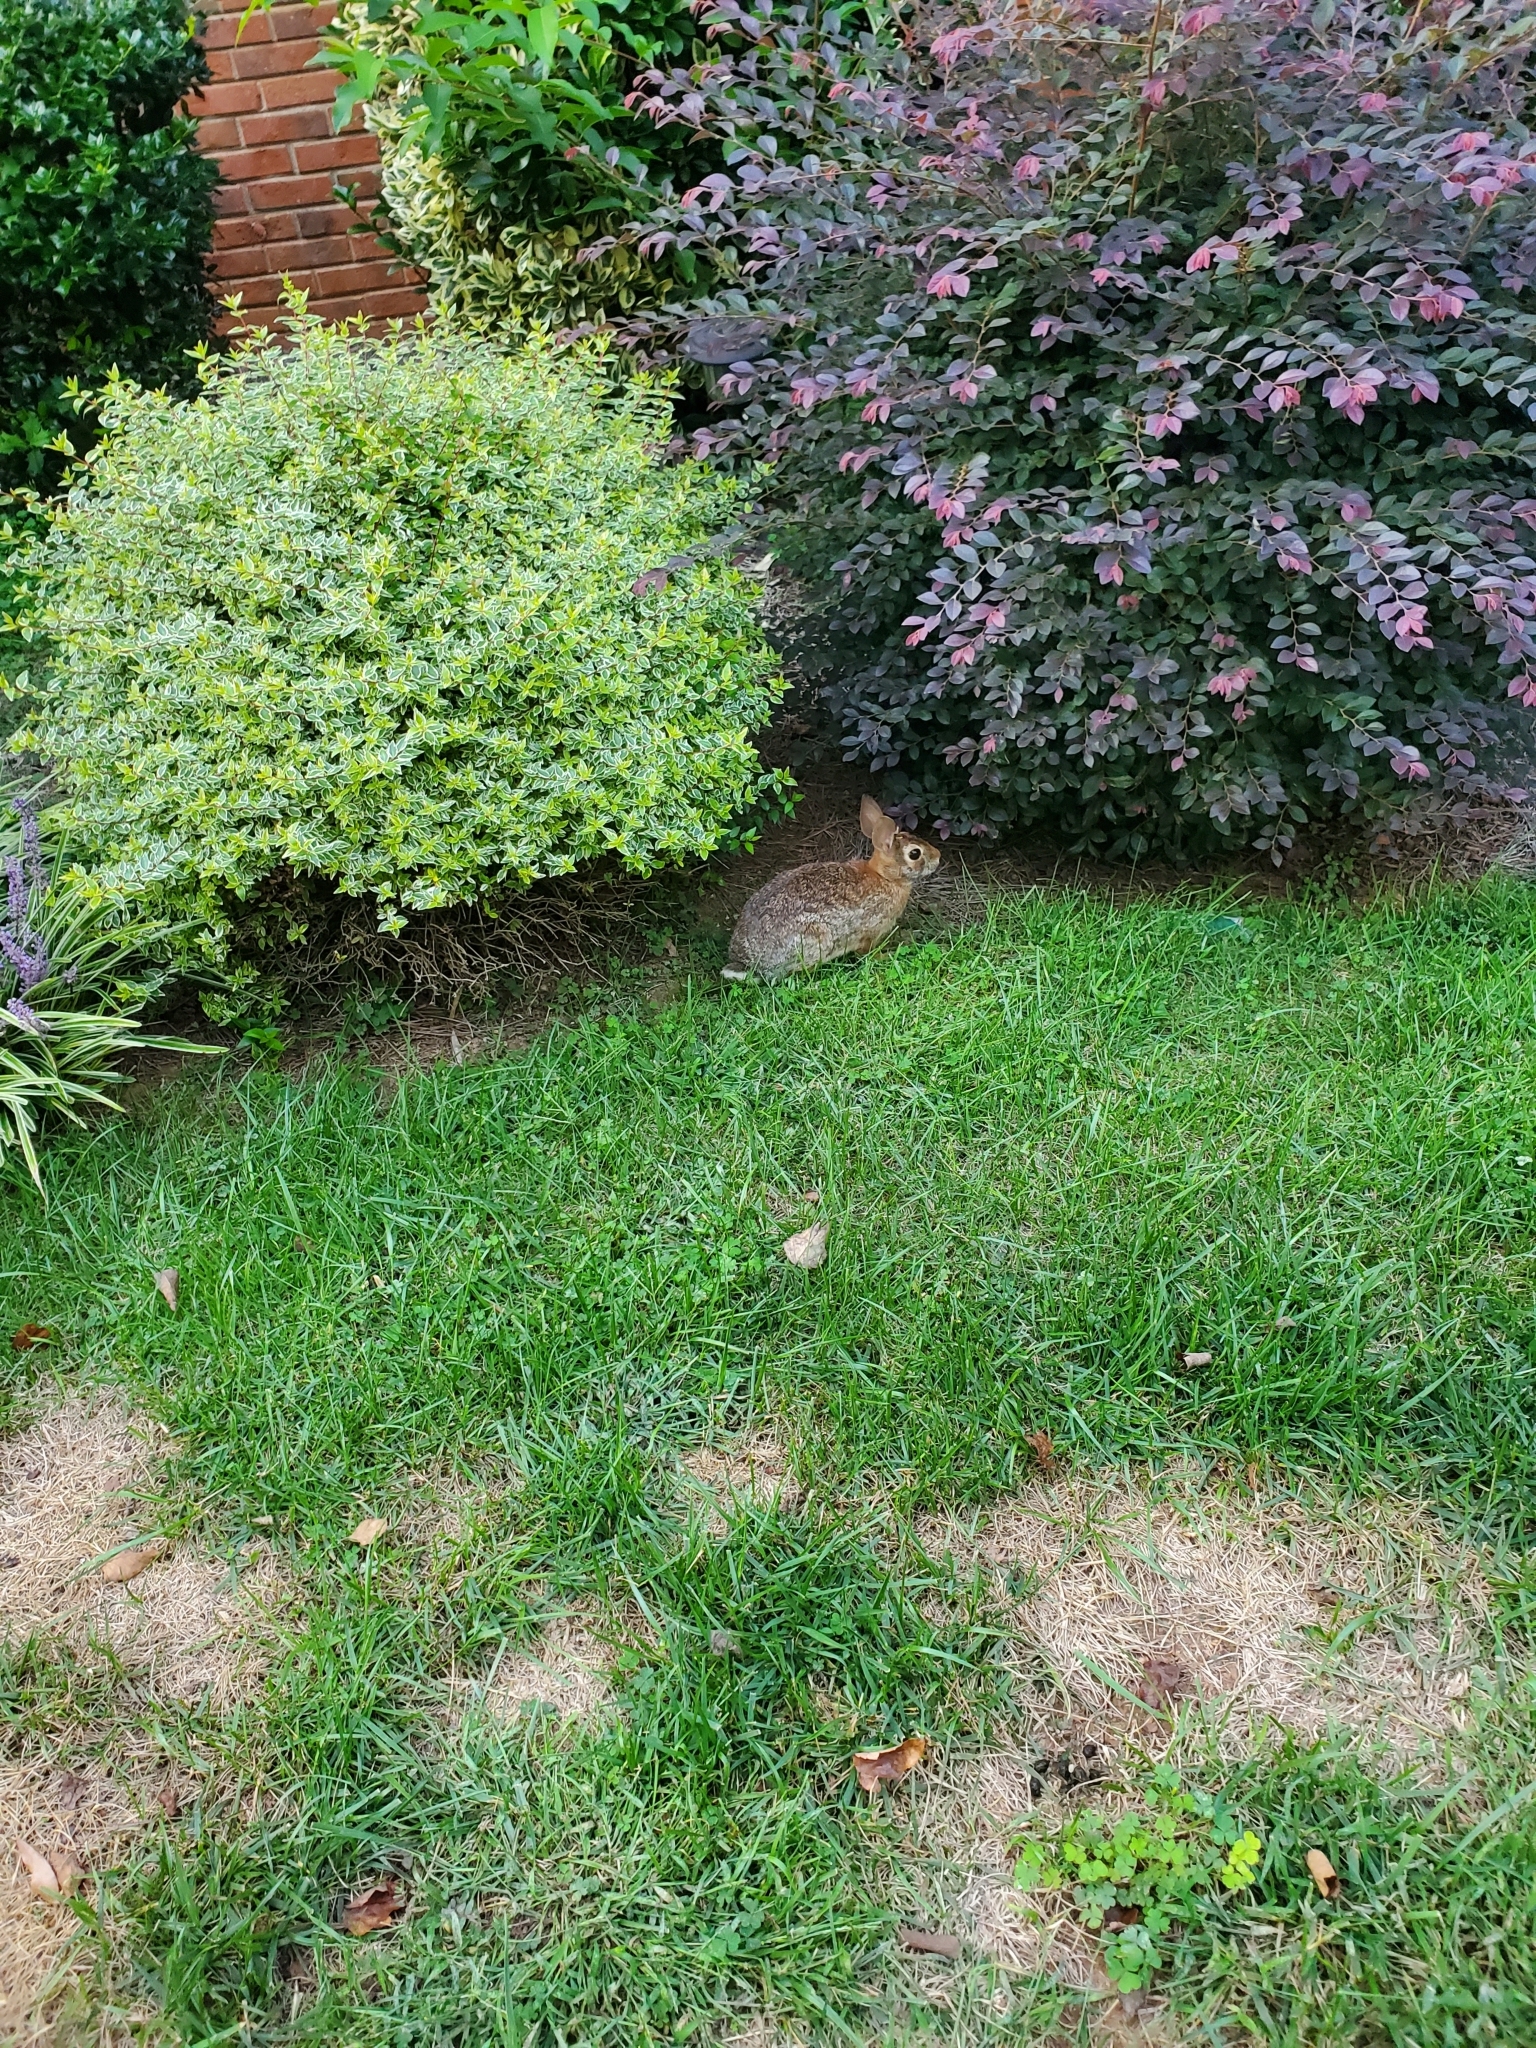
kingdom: Animalia
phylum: Chordata
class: Mammalia
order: Lagomorpha
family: Leporidae
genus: Sylvilagus
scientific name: Sylvilagus floridanus
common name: Eastern cottontail
